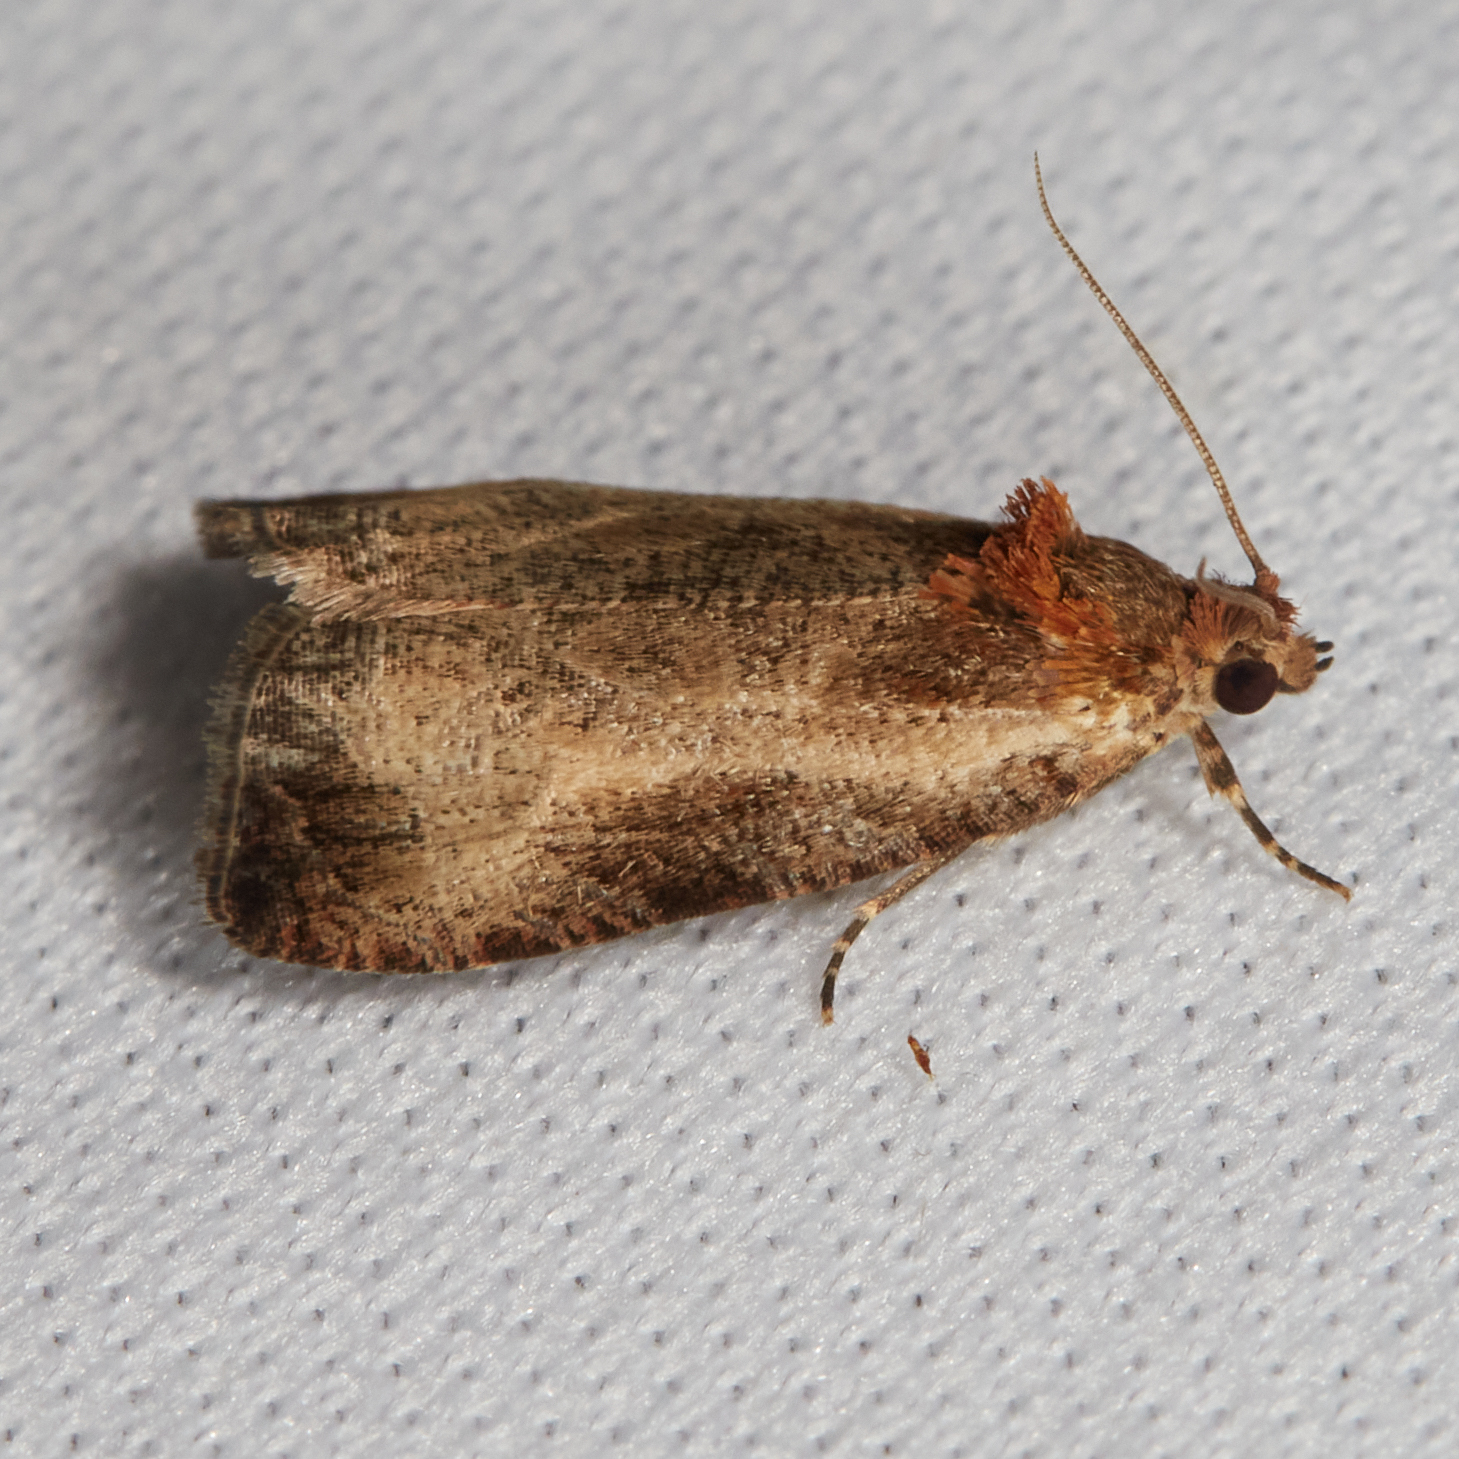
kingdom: Animalia
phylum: Arthropoda
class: Insecta
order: Lepidoptera
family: Tortricidae
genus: Olethreutes
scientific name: Olethreutes inornatana
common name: Inornate olethreutes moth
